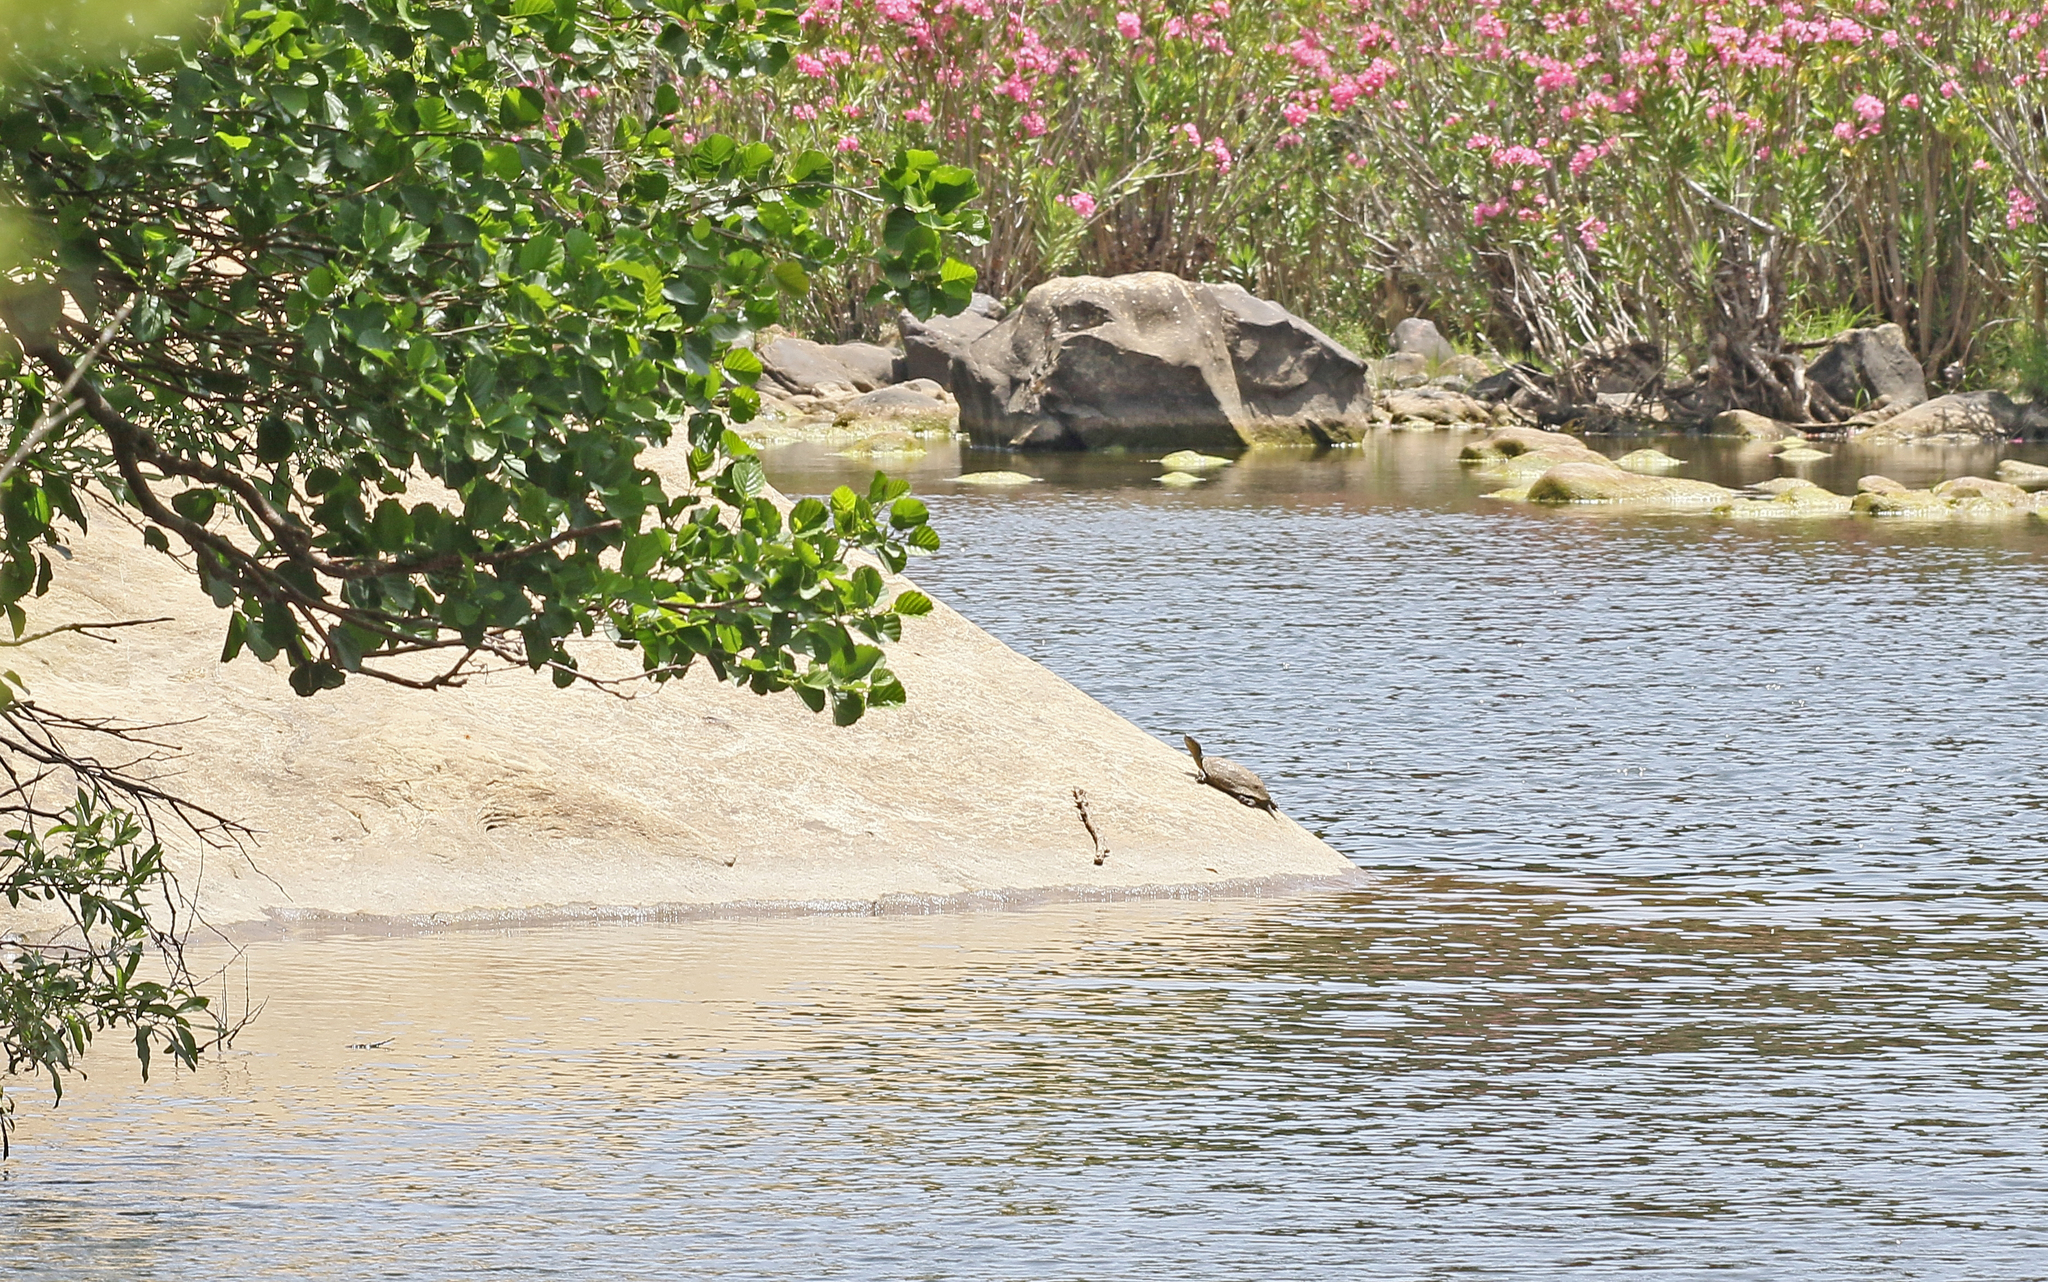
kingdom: Animalia
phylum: Chordata
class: Testudines
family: Geoemydidae
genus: Mauremys
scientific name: Mauremys leprosa
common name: Mediterranean pond turtle
